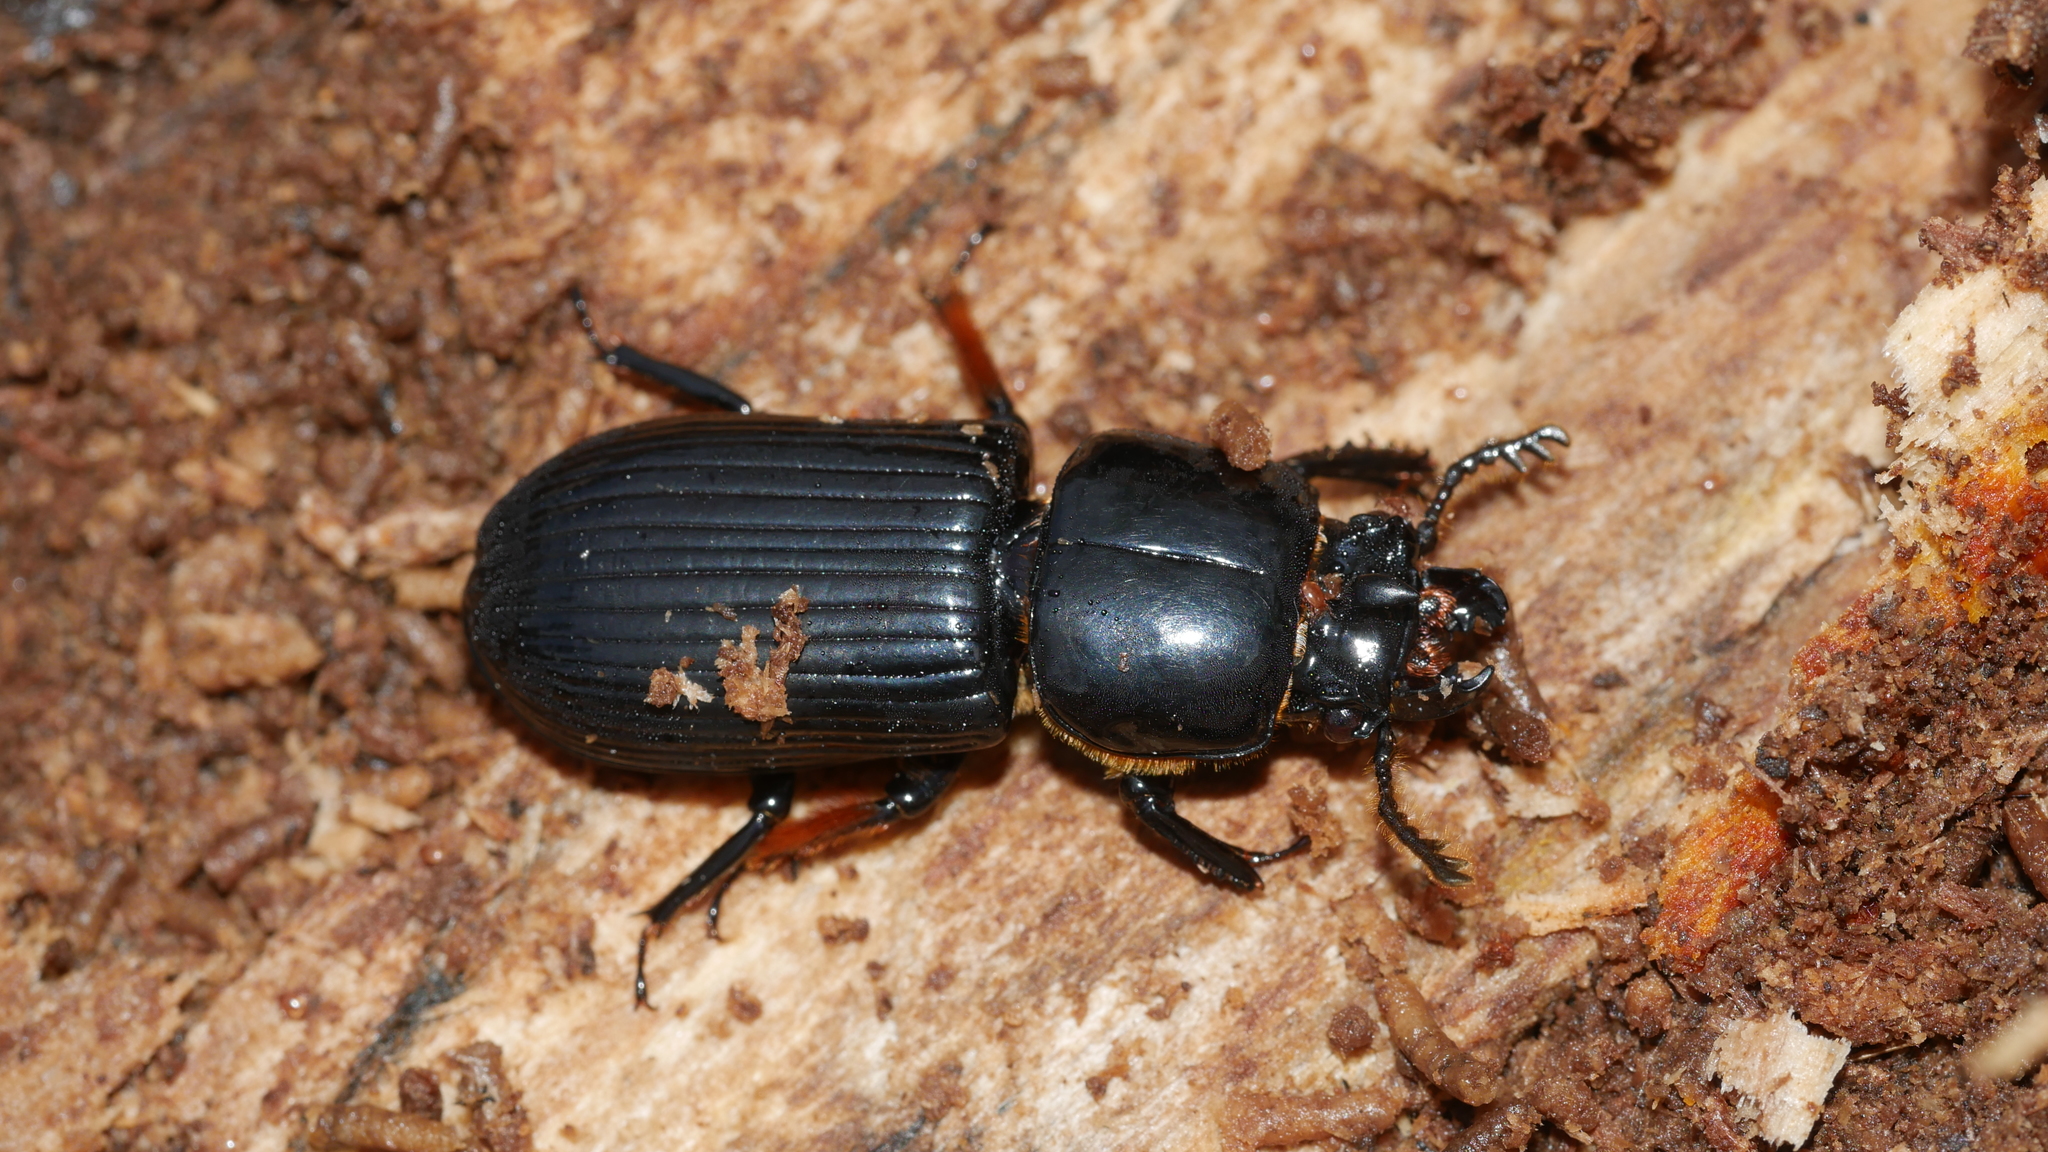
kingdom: Animalia
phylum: Arthropoda
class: Insecta
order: Coleoptera
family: Passalidae
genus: Odontotaenius
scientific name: Odontotaenius disjunctus
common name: Patent leather beetle
